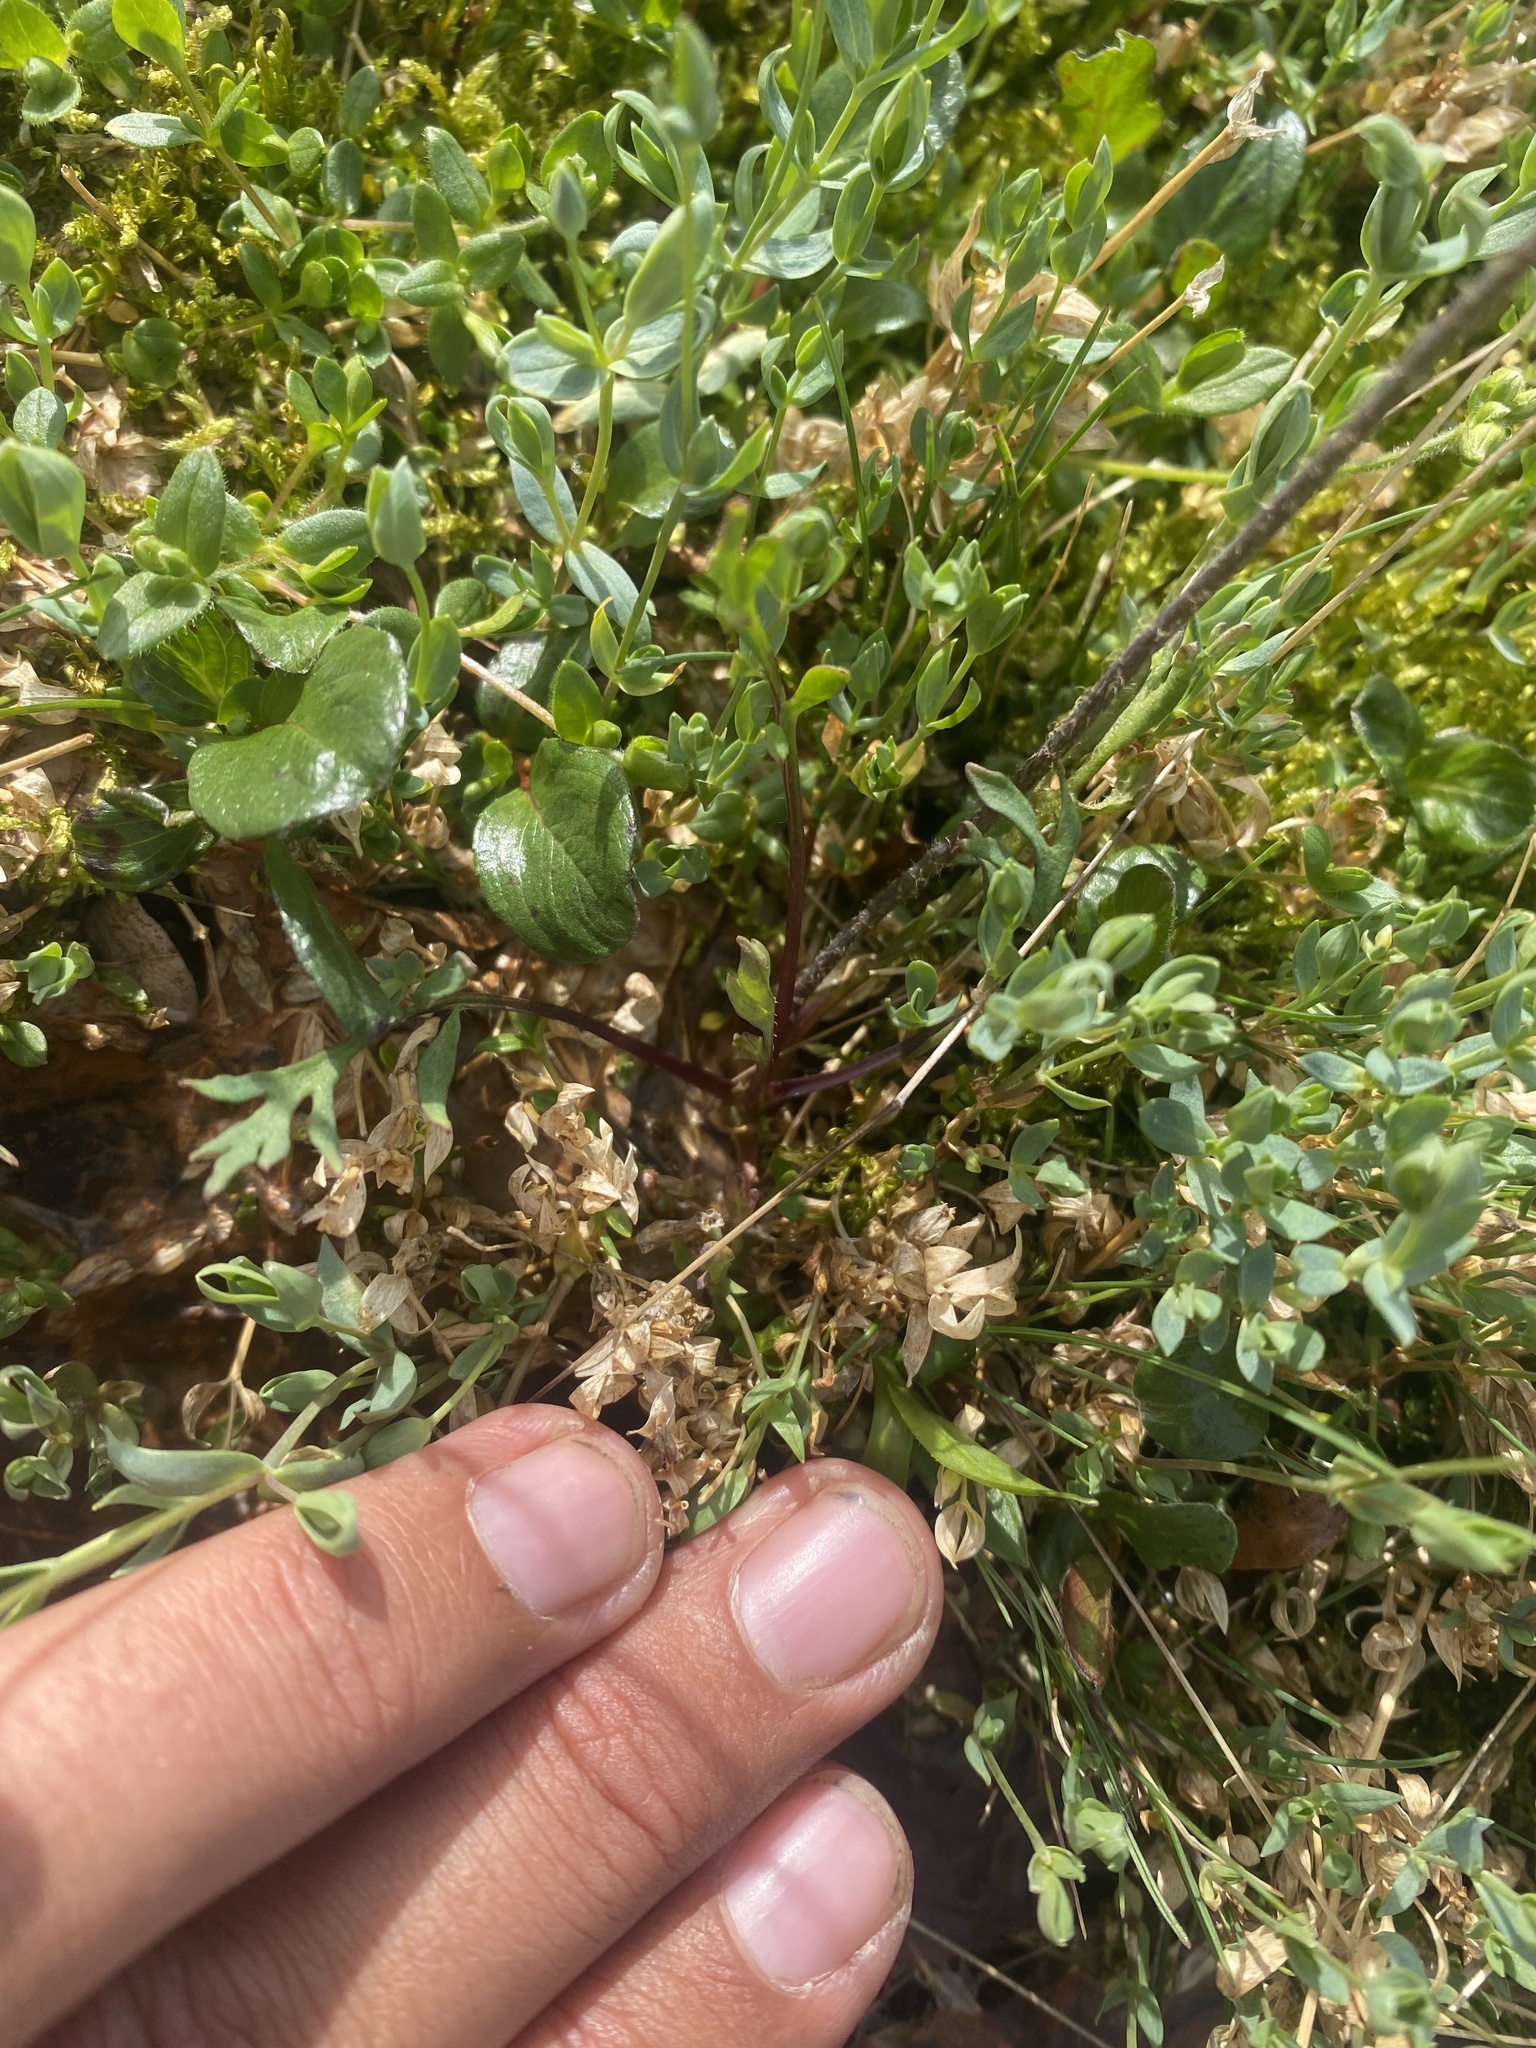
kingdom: Plantae
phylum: Tracheophyta
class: Magnoliopsida
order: Ranunculales
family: Papaveraceae
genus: Papaver
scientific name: Papaver variegatum
